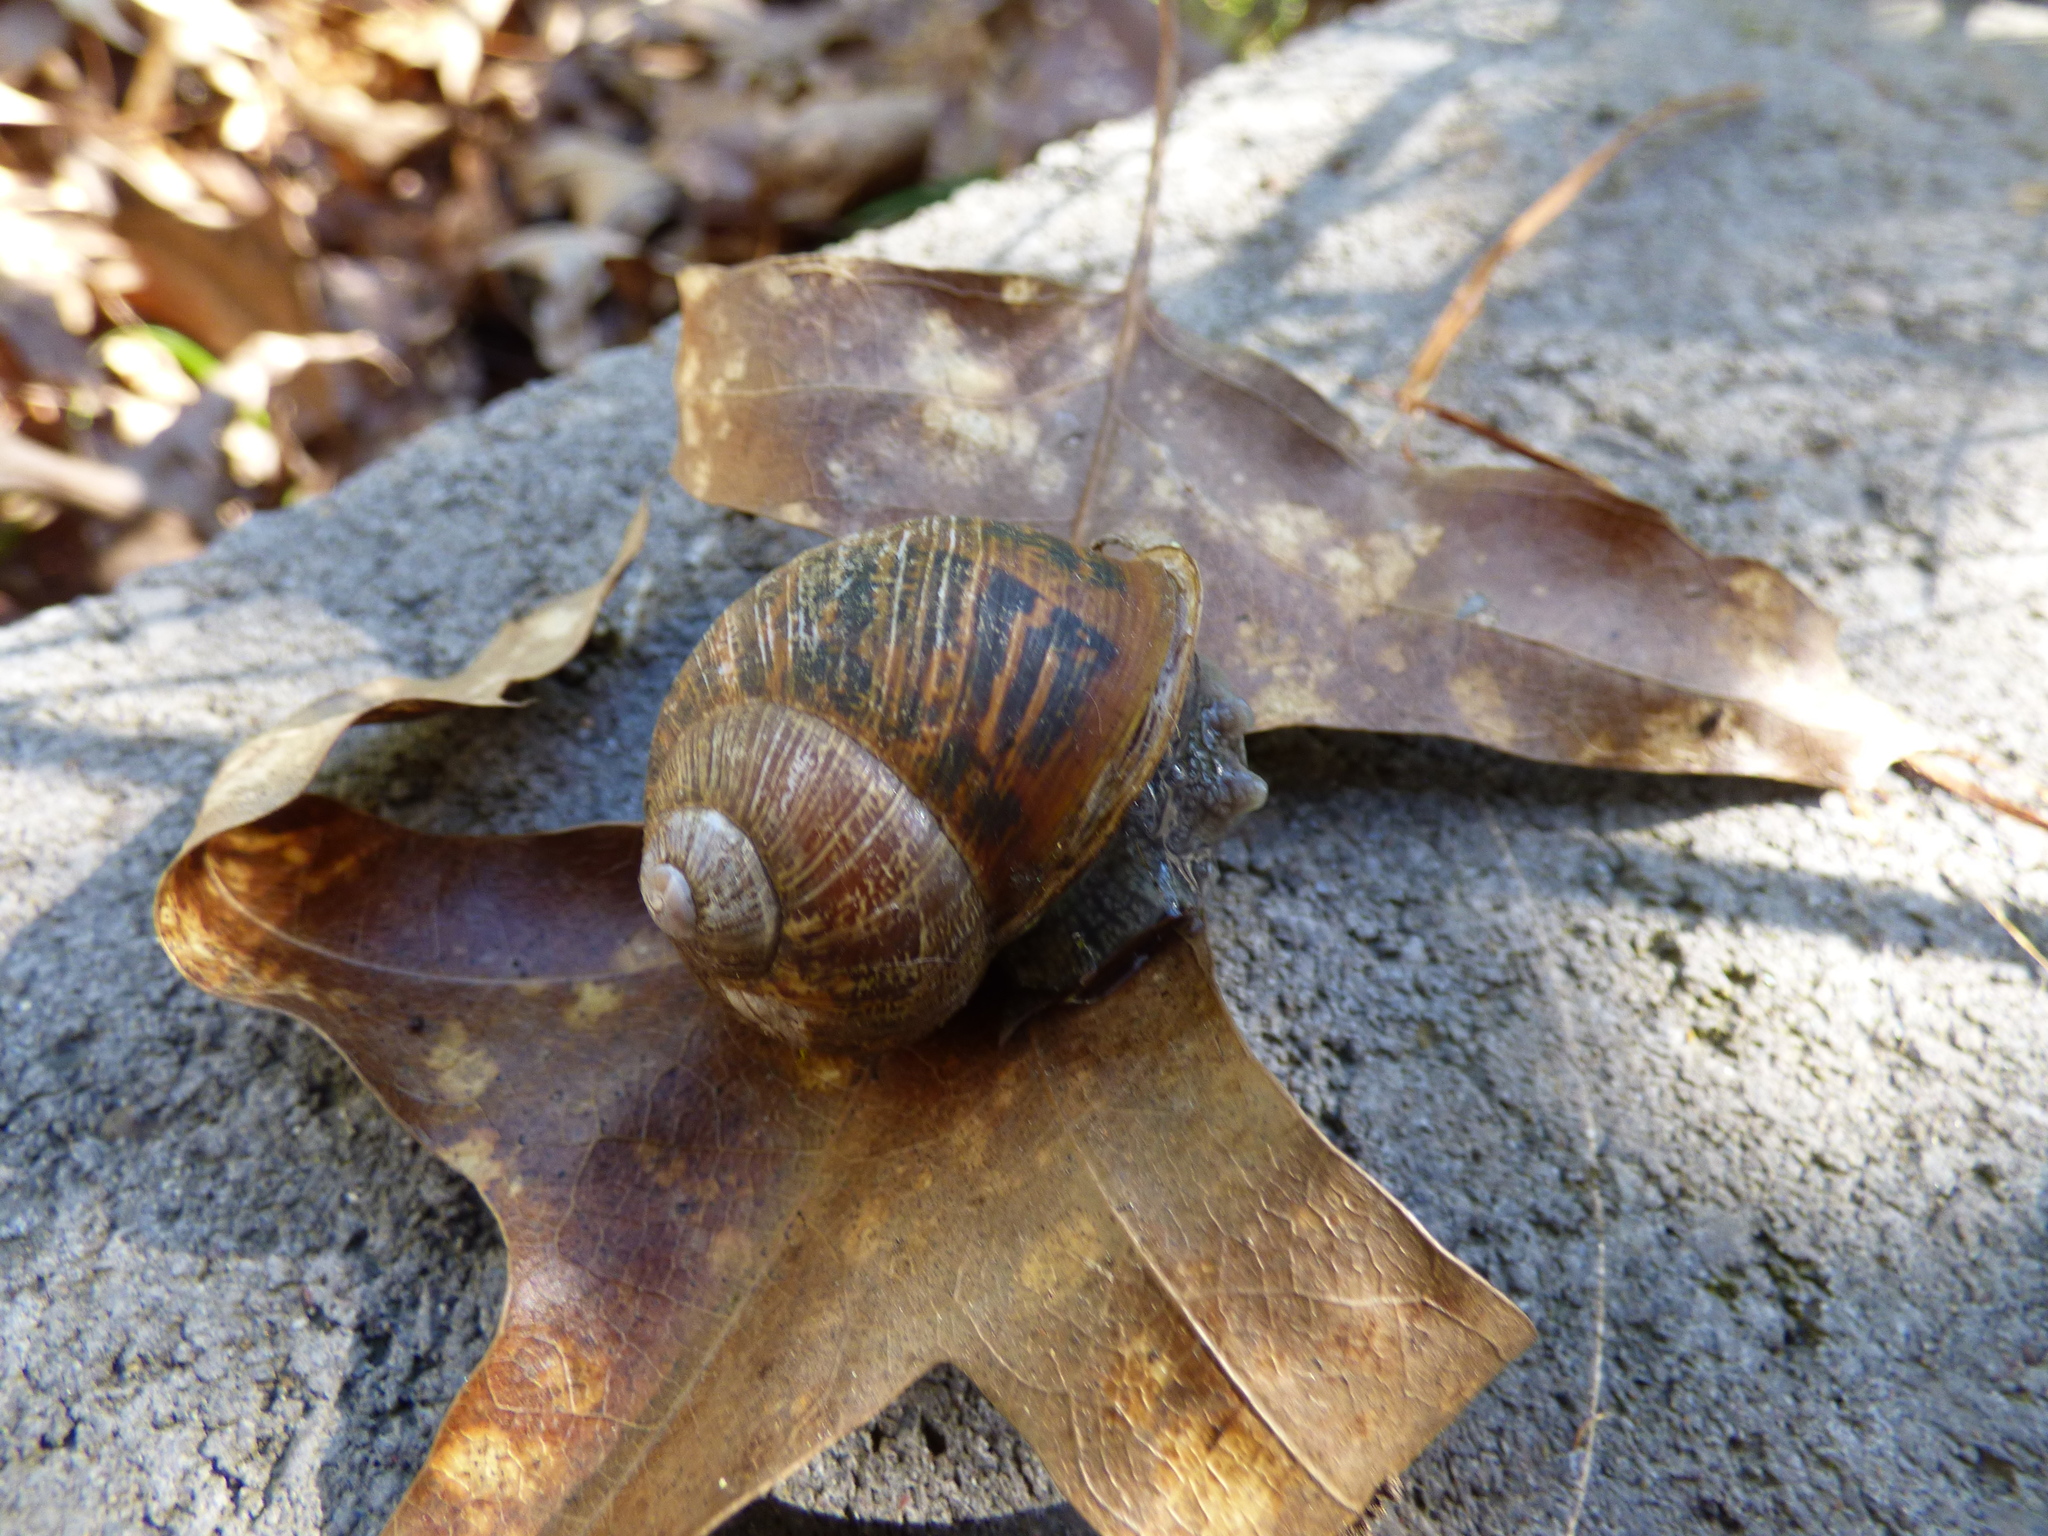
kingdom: Animalia
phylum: Mollusca
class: Gastropoda
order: Stylommatophora
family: Helicidae
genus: Cornu
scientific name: Cornu aspersum
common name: Brown garden snail
